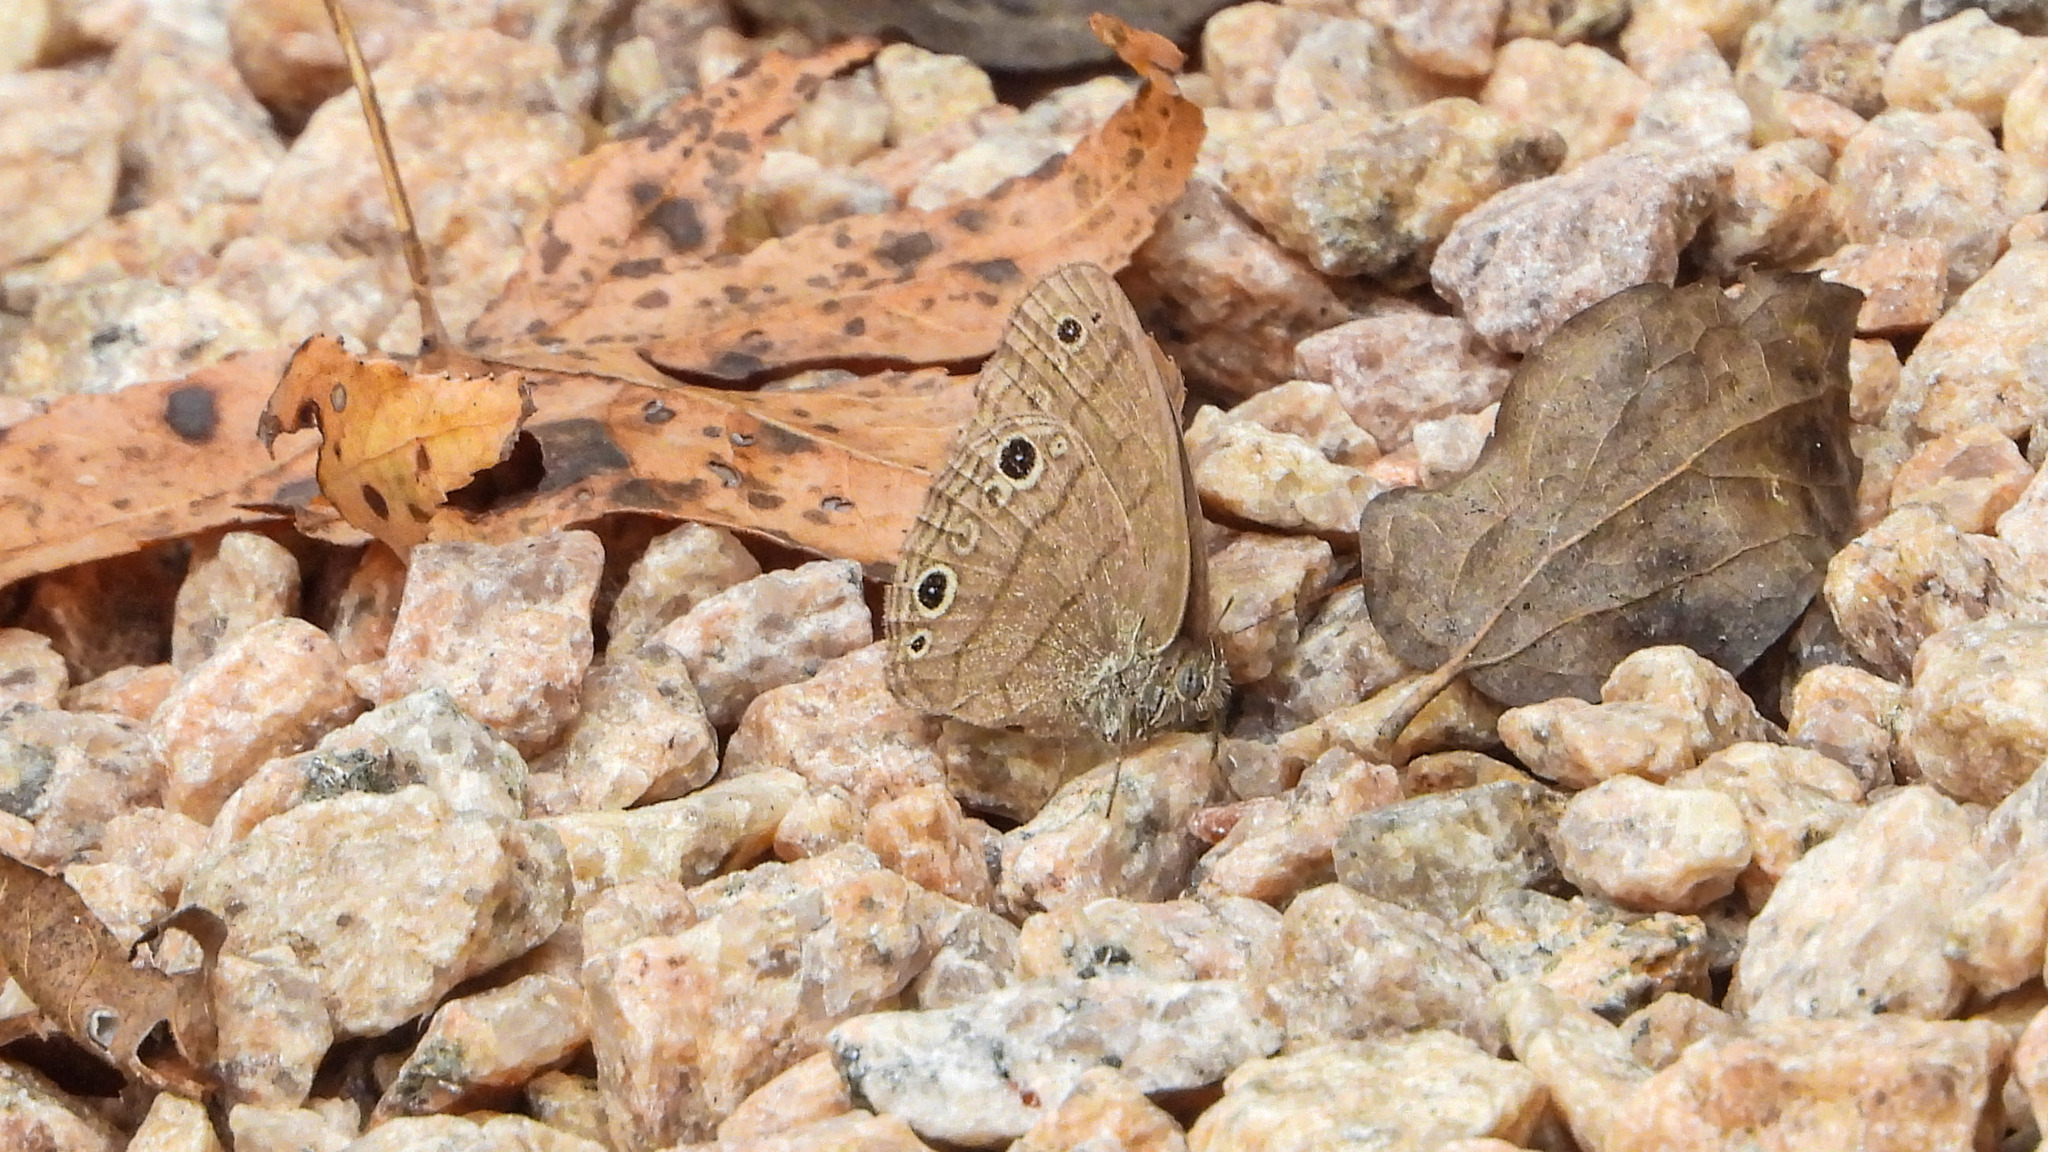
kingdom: Animalia
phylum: Arthropoda
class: Insecta
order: Lepidoptera
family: Nymphalidae
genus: Hermeuptychia
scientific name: Hermeuptychia hermes
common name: Hermes satyr
